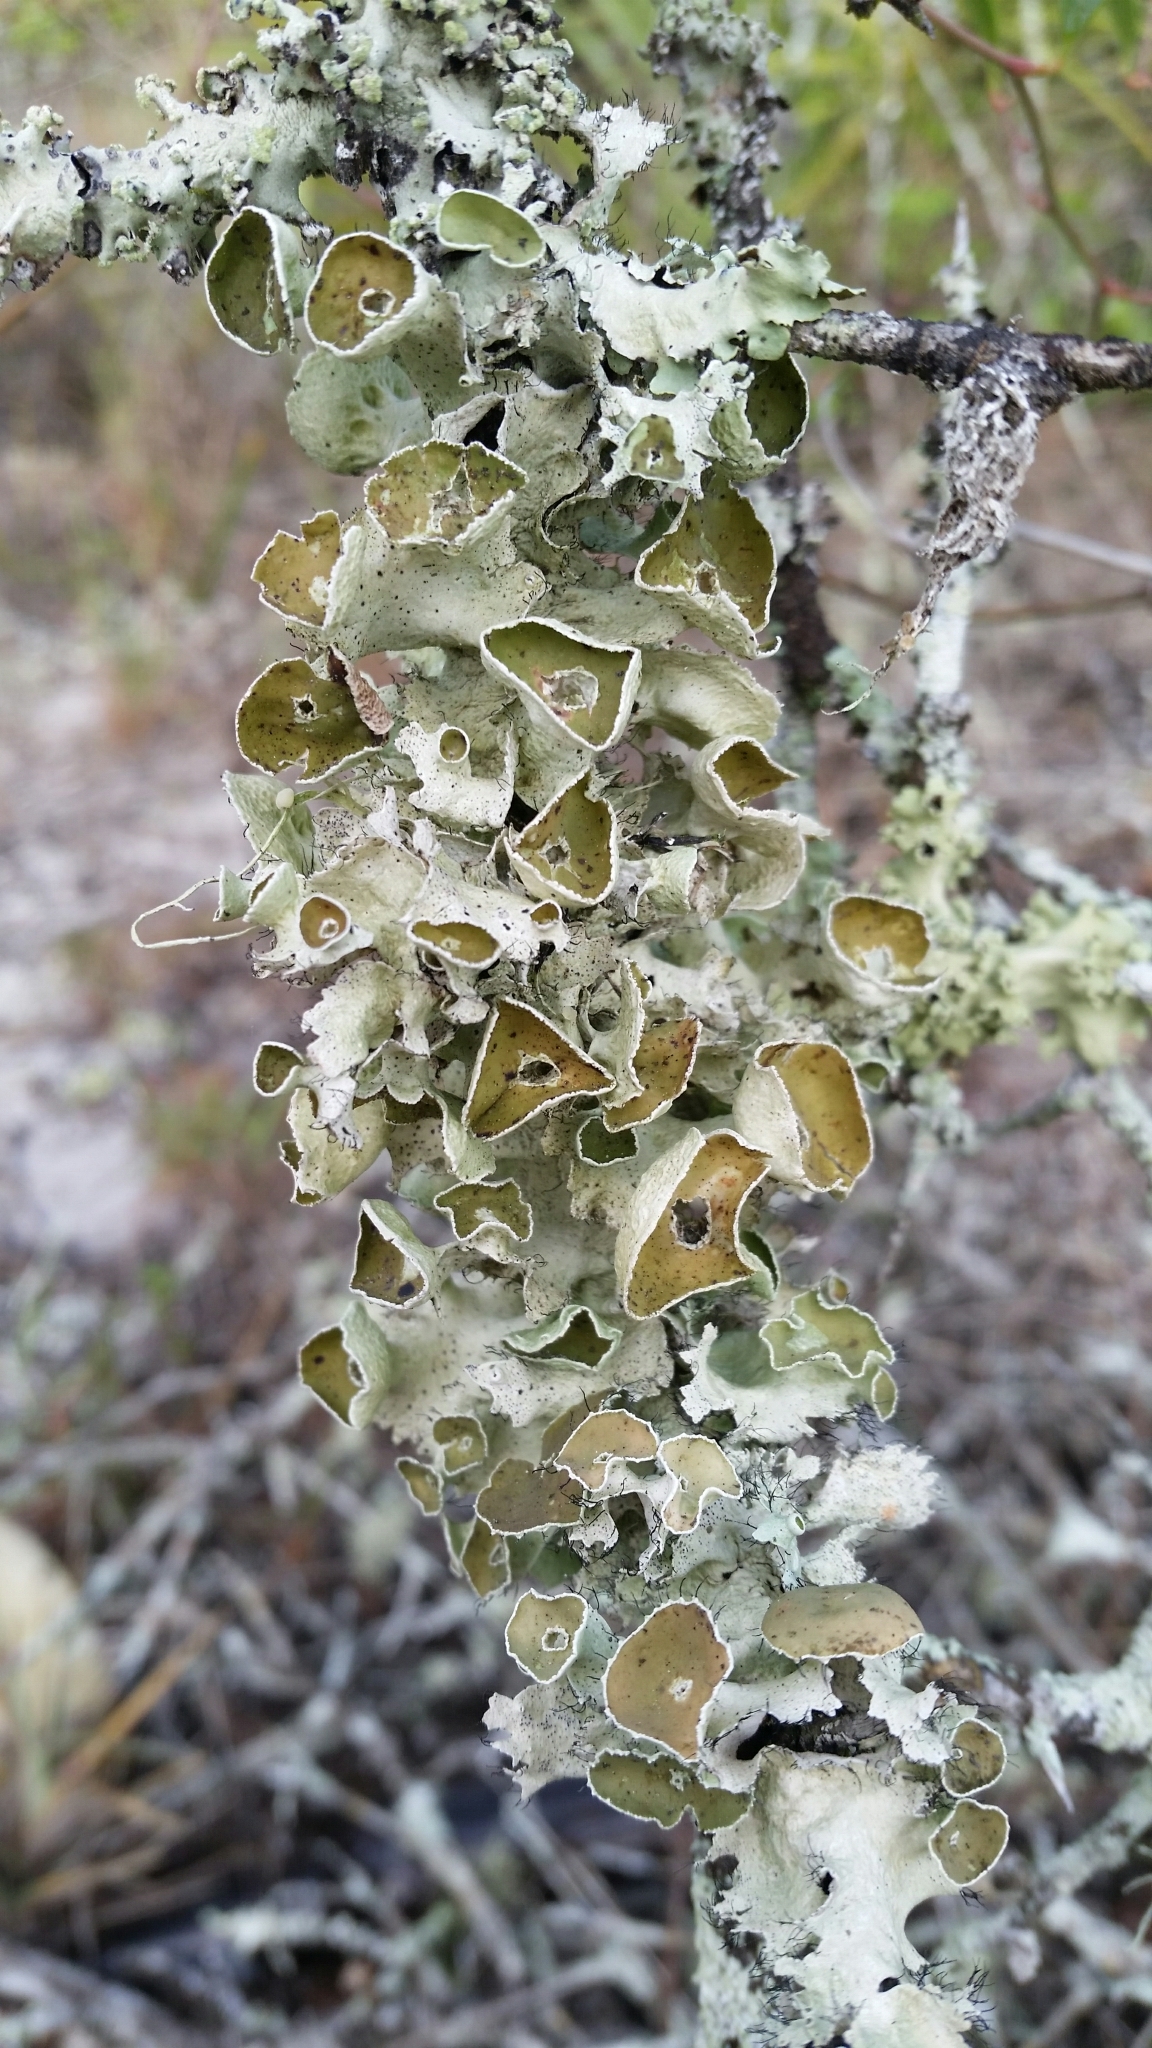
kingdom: Fungi
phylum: Ascomycota
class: Lecanoromycetes
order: Lecanorales
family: Parmeliaceae
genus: Parmotrema
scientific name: Parmotrema perforatum
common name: Perforated ruffle lichen
